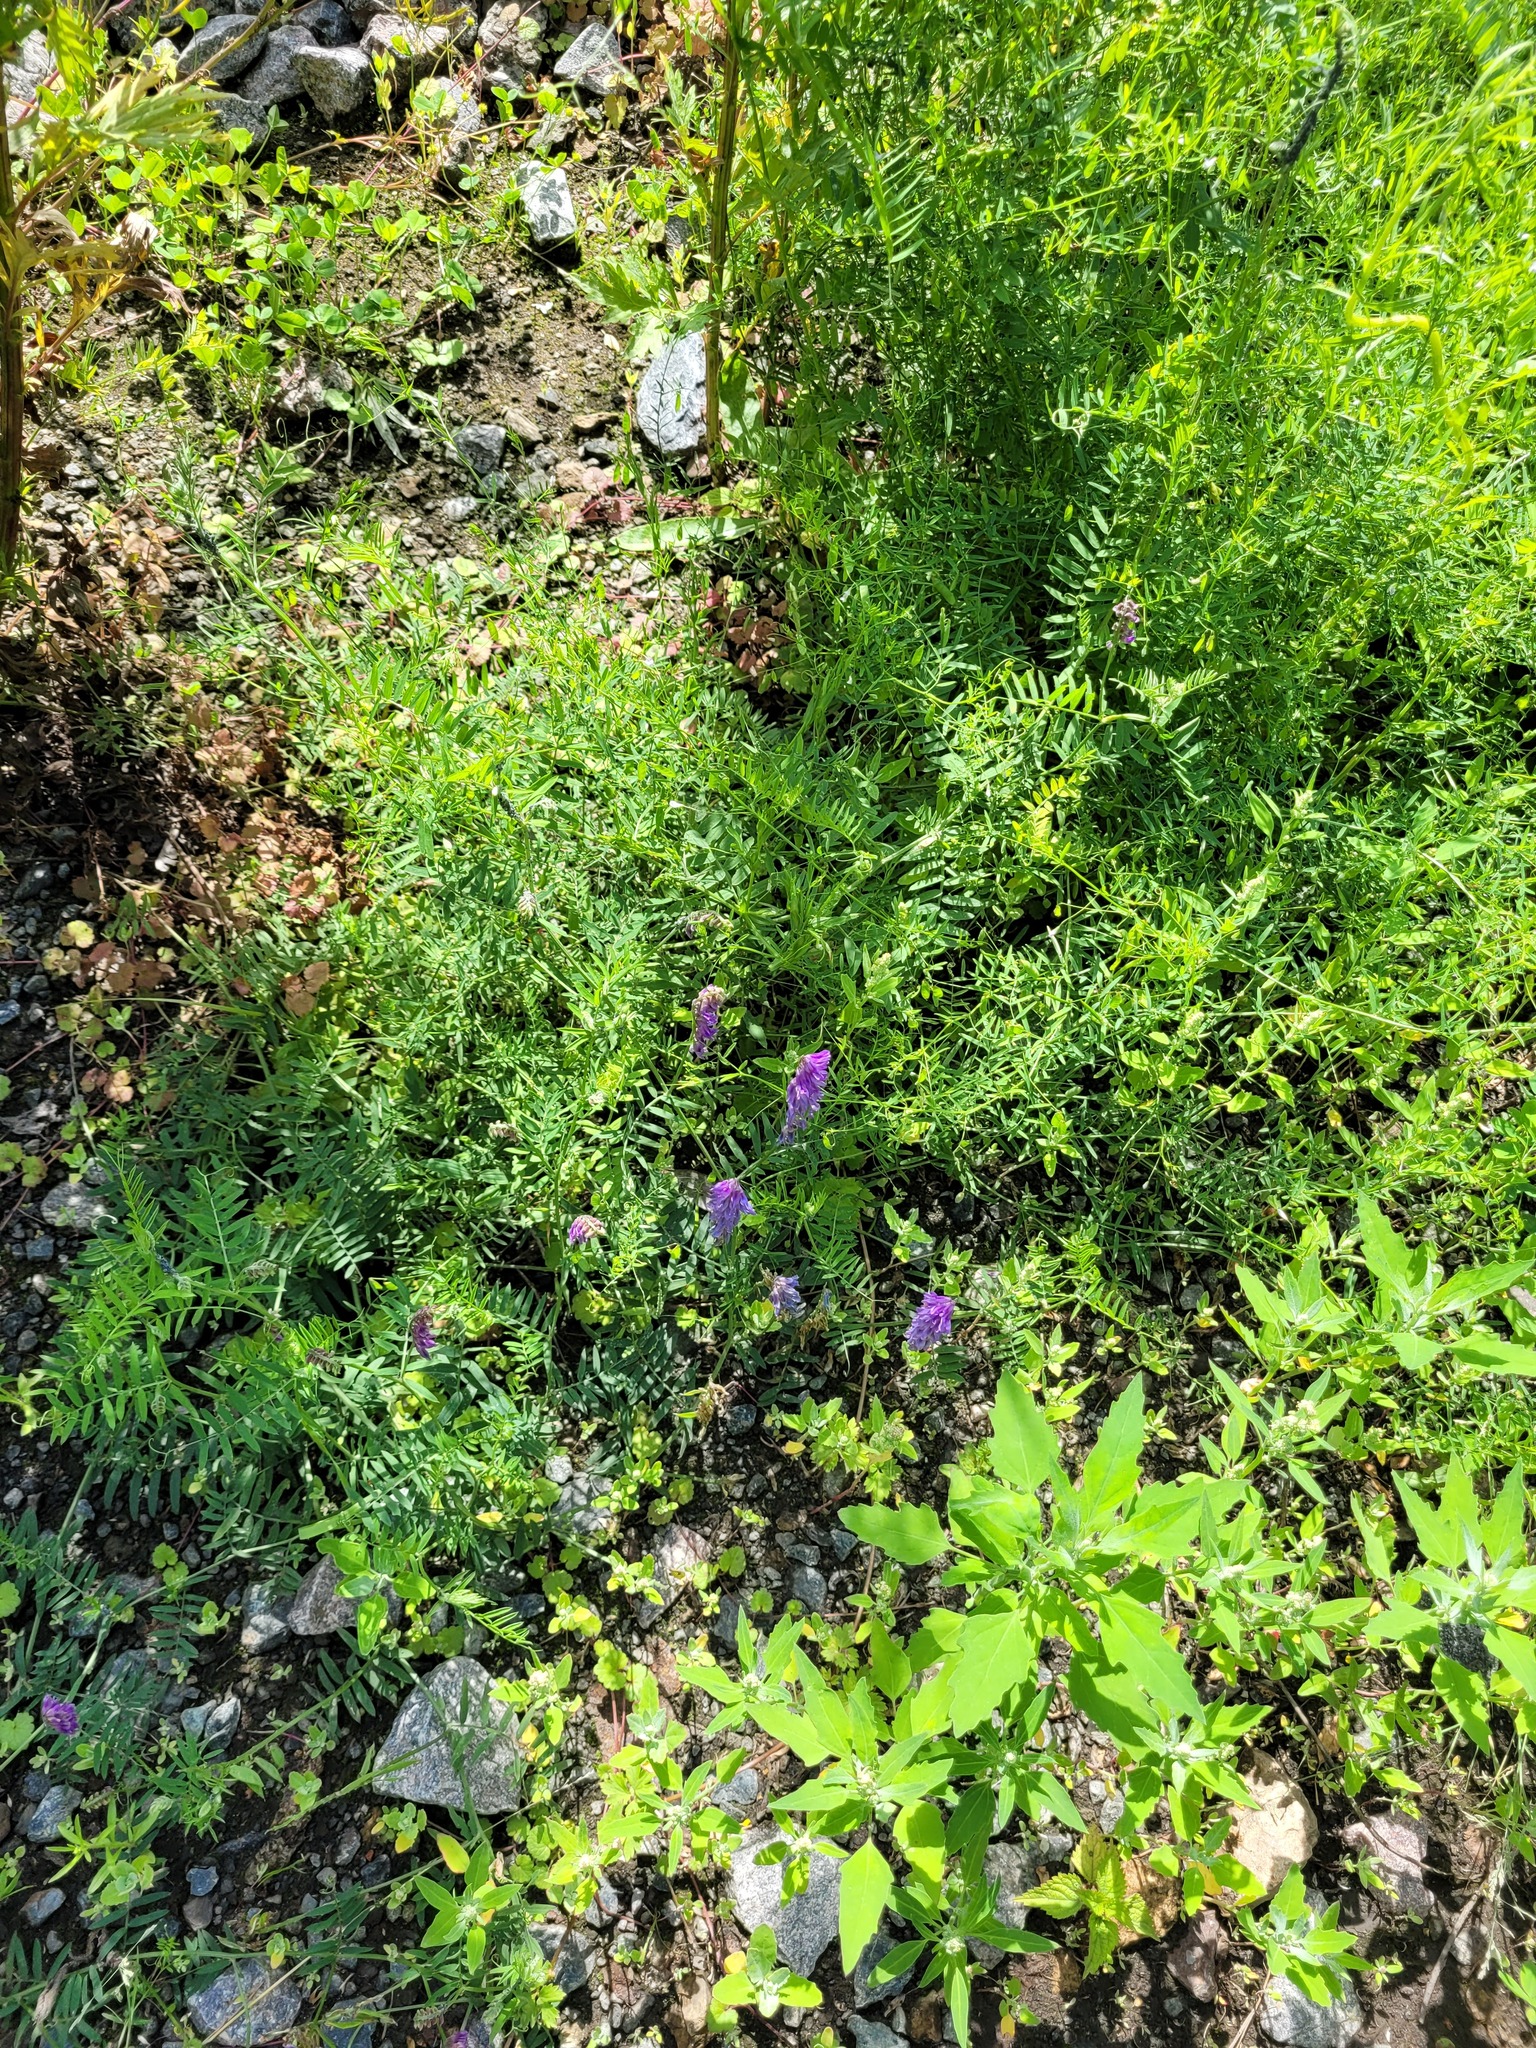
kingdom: Plantae
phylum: Tracheophyta
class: Magnoliopsida
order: Fabales
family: Fabaceae
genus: Vicia
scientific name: Vicia cracca
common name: Bird vetch
